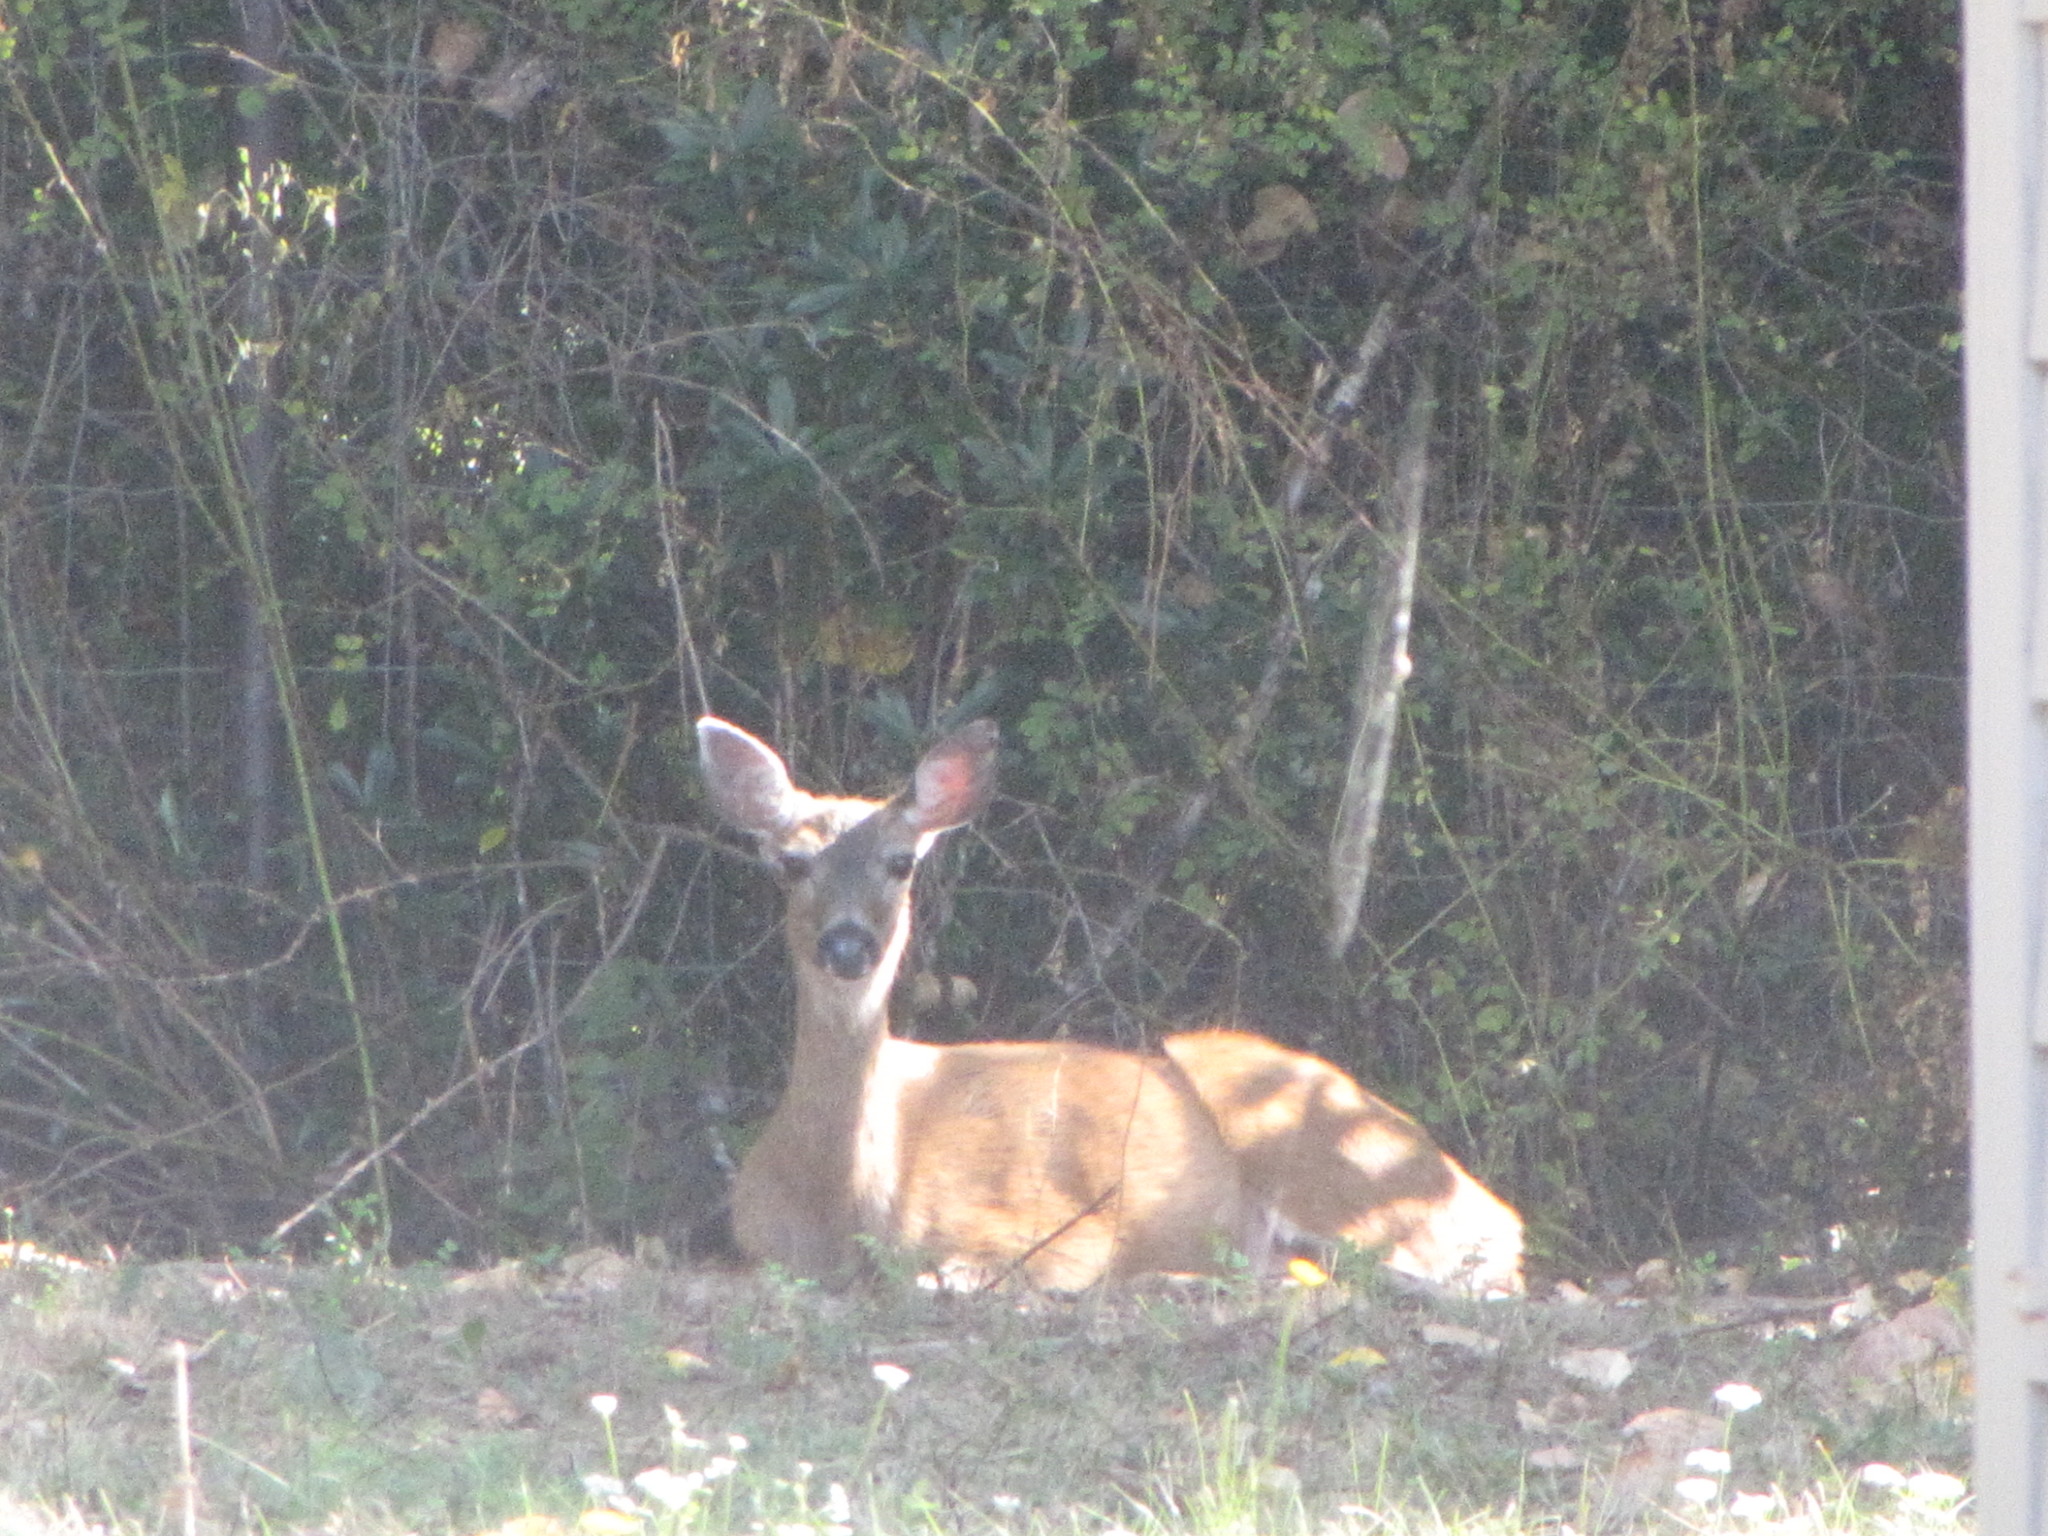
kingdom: Animalia
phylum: Chordata
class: Mammalia
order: Artiodactyla
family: Cervidae
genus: Odocoileus
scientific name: Odocoileus hemionus
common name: Mule deer
